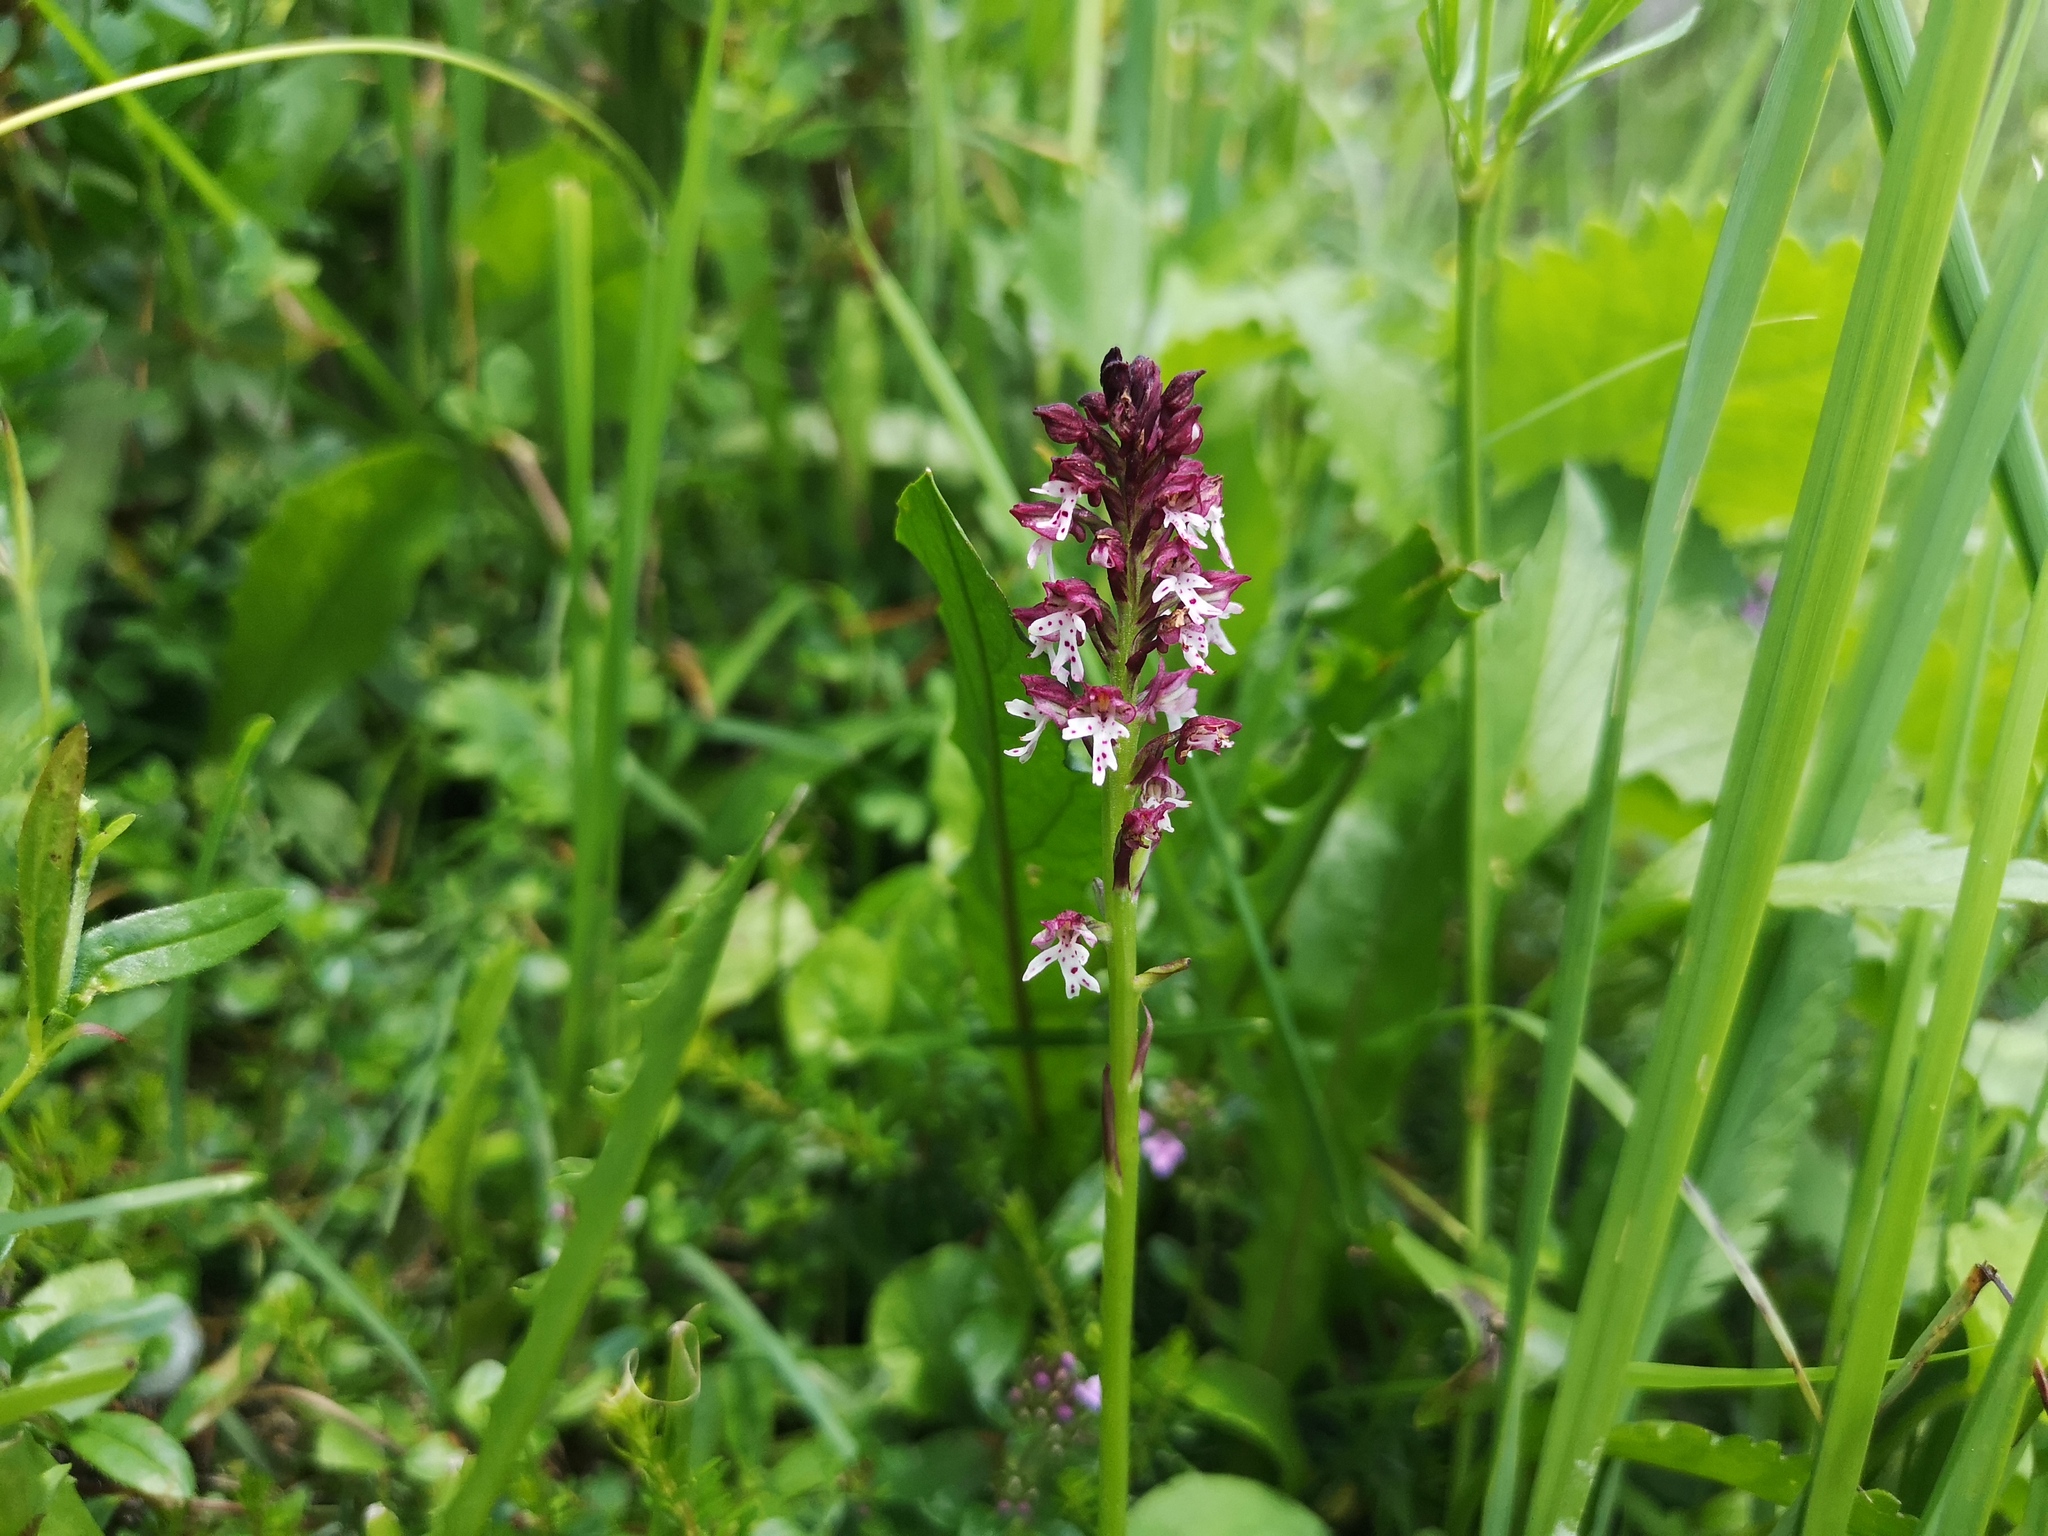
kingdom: Plantae
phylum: Tracheophyta
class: Liliopsida
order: Asparagales
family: Orchidaceae
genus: Neotinea
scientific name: Neotinea ustulata
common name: Burnt orchid
